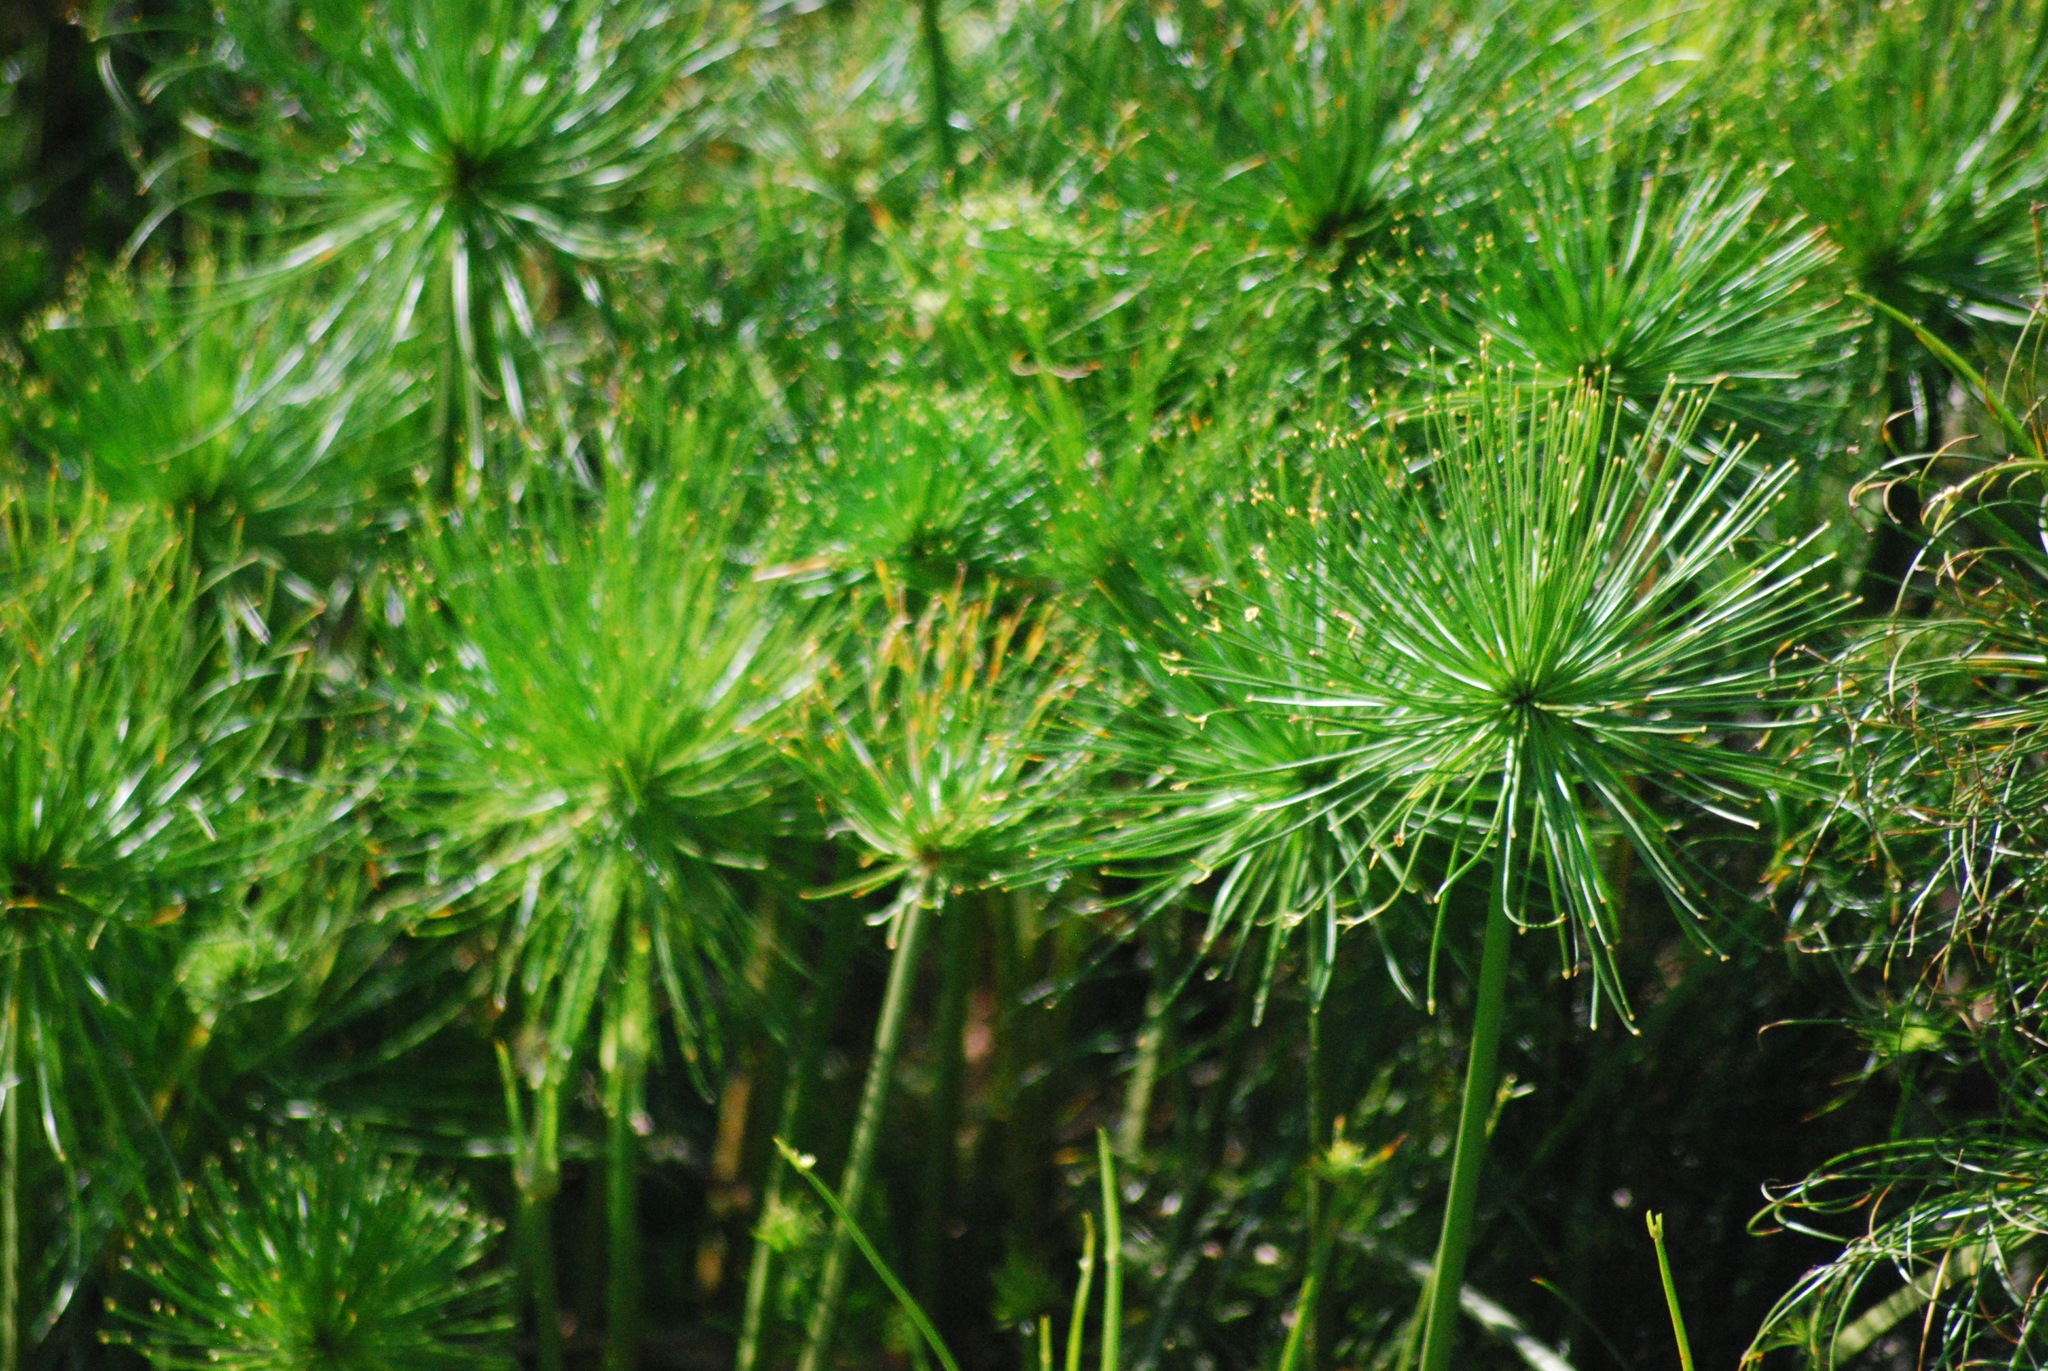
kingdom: Plantae
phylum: Tracheophyta
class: Liliopsida
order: Poales
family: Cyperaceae
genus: Cyperus
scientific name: Cyperus prolifer
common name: Miniature flatsedge
